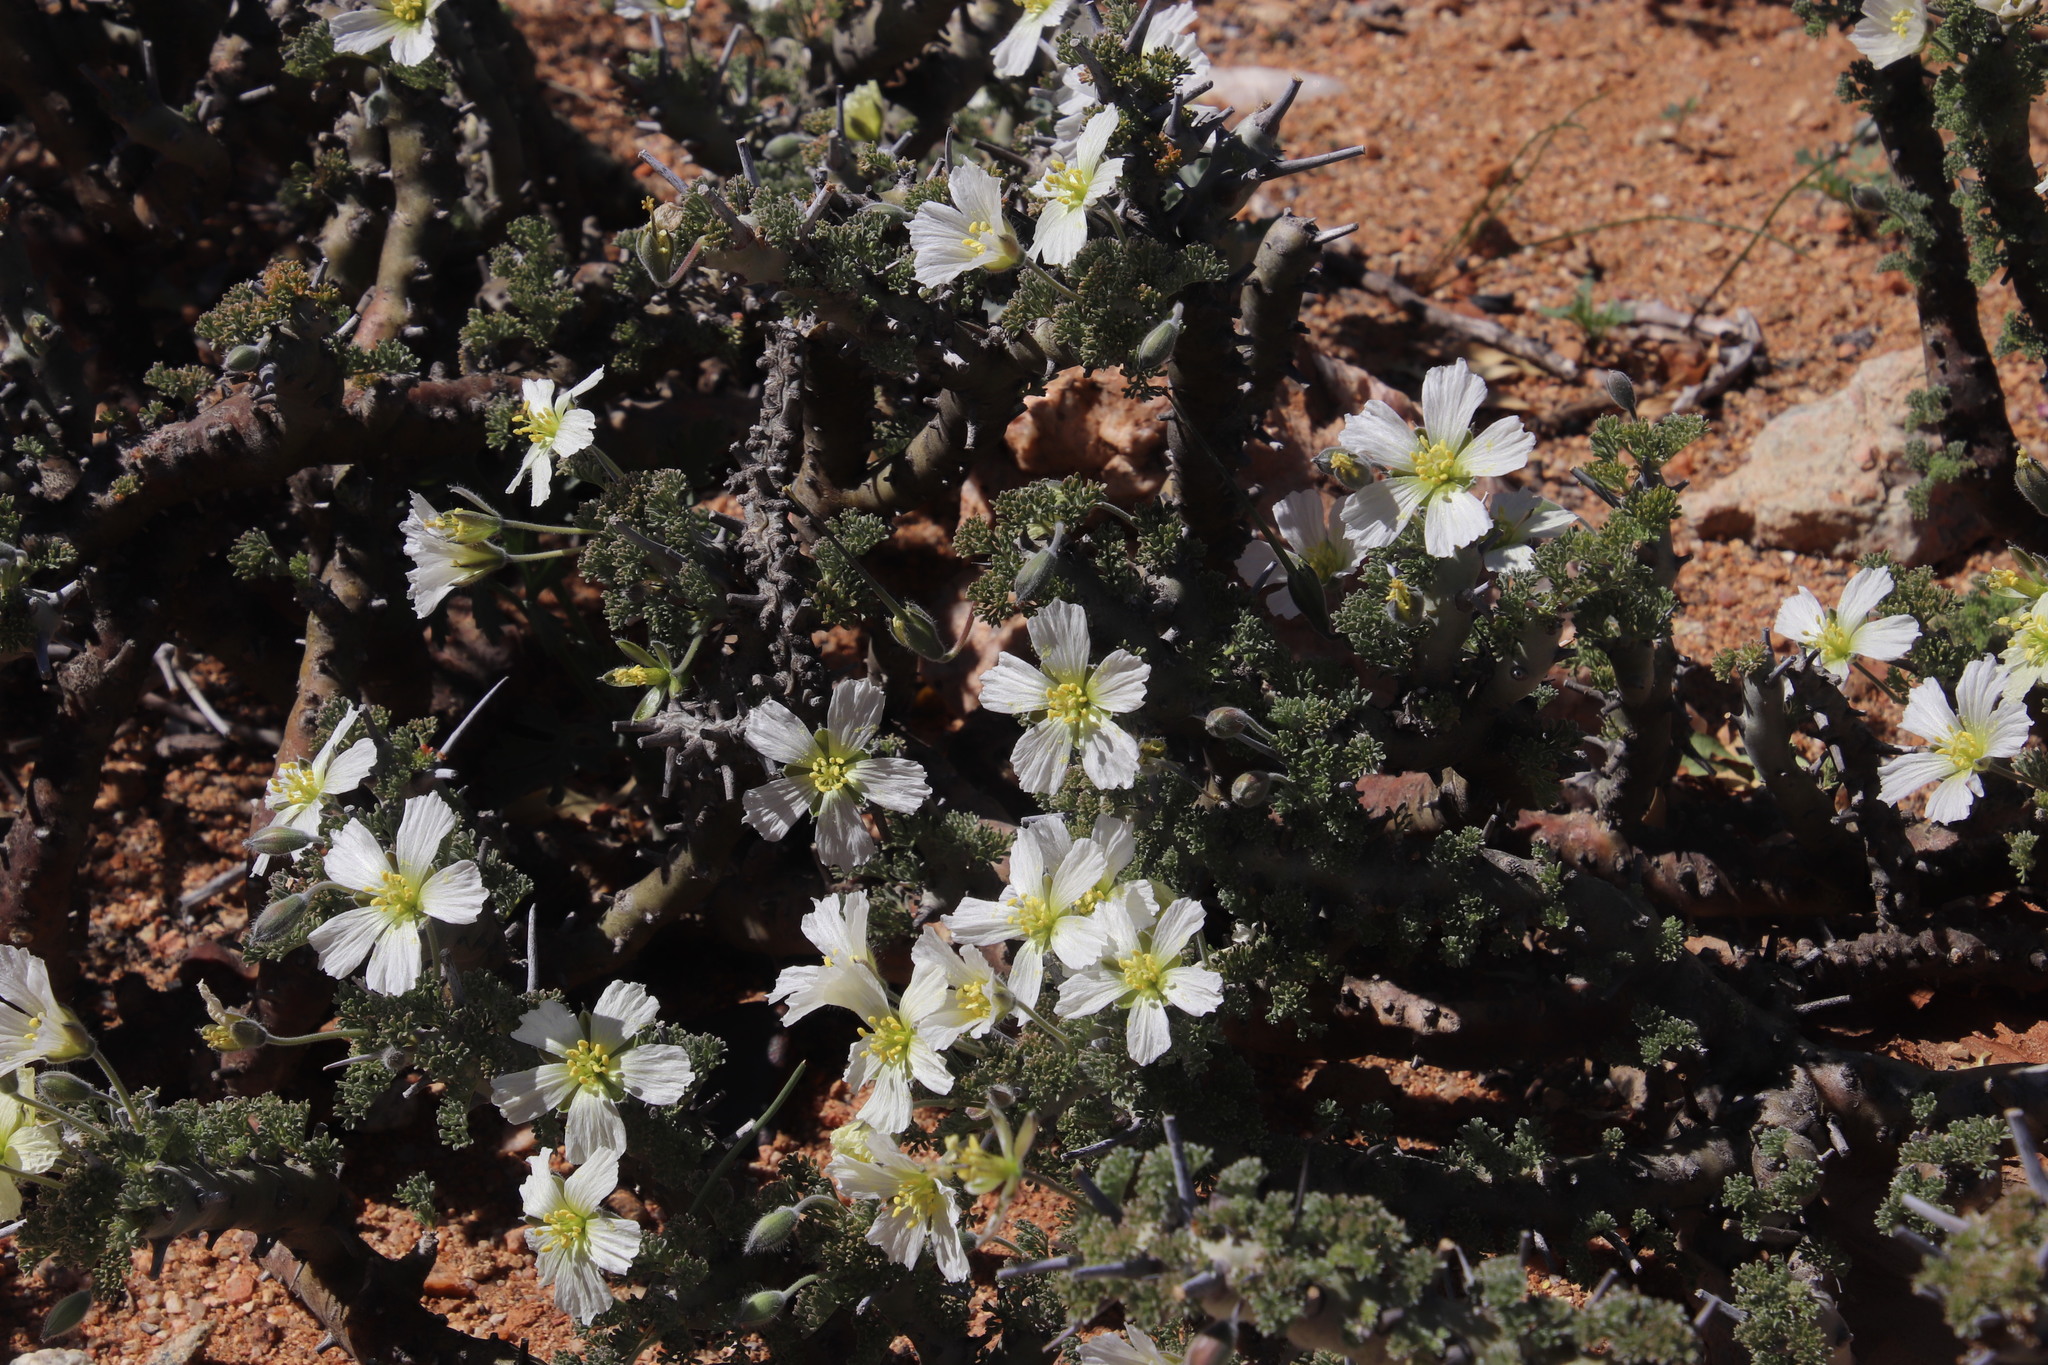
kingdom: Plantae
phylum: Tracheophyta
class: Magnoliopsida
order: Geraniales
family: Geraniaceae
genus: Monsonia
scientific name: Monsonia herrei
